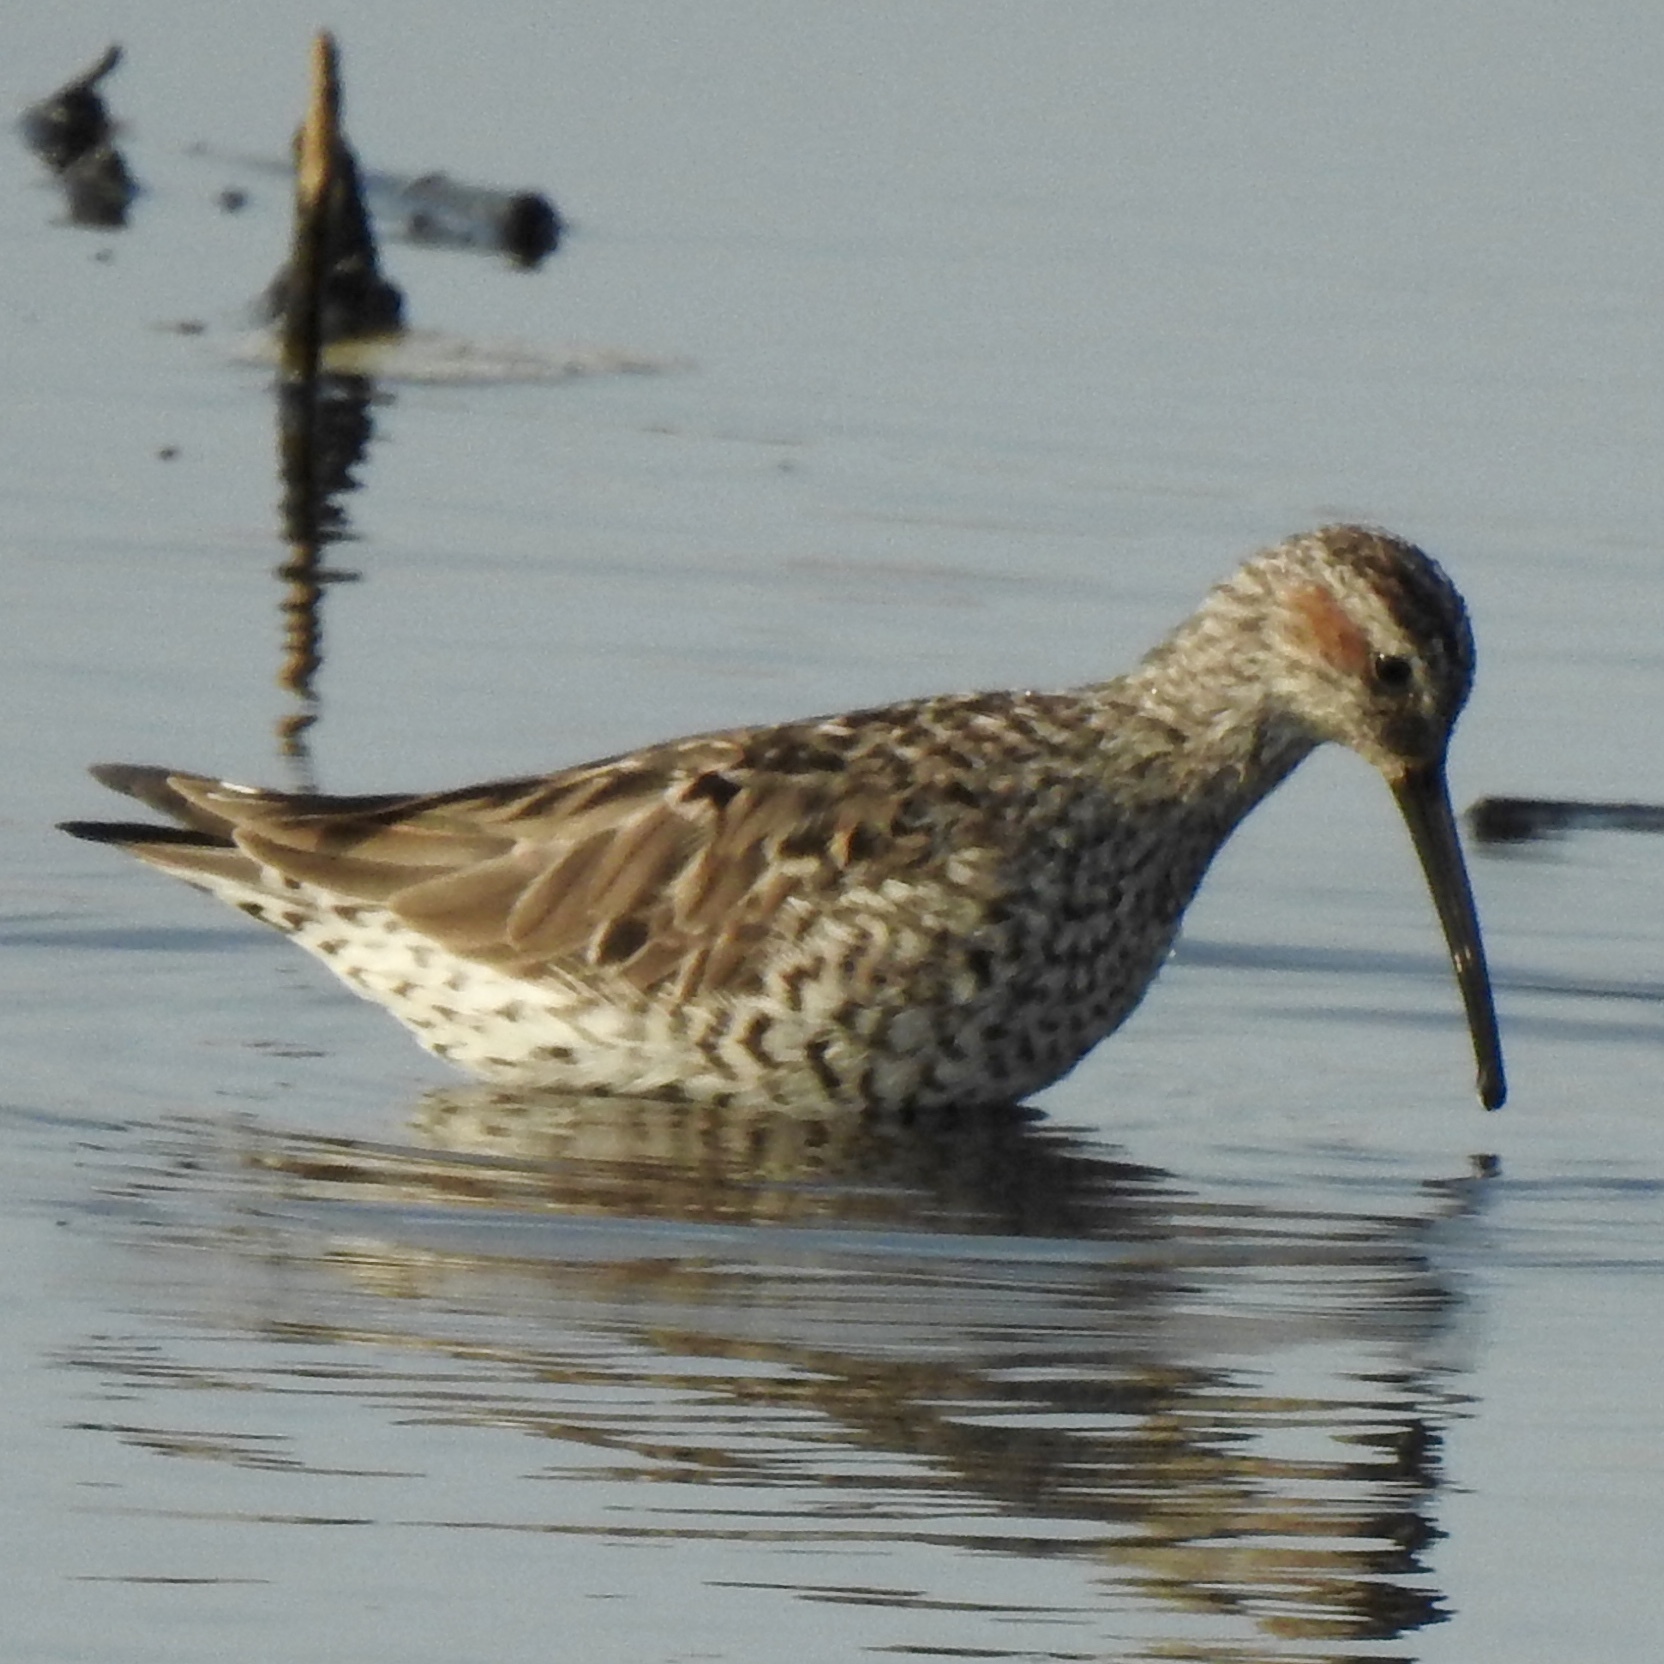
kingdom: Animalia
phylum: Chordata
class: Aves
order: Charadriiformes
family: Scolopacidae
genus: Calidris
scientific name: Calidris himantopus
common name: Stilt sandpiper
